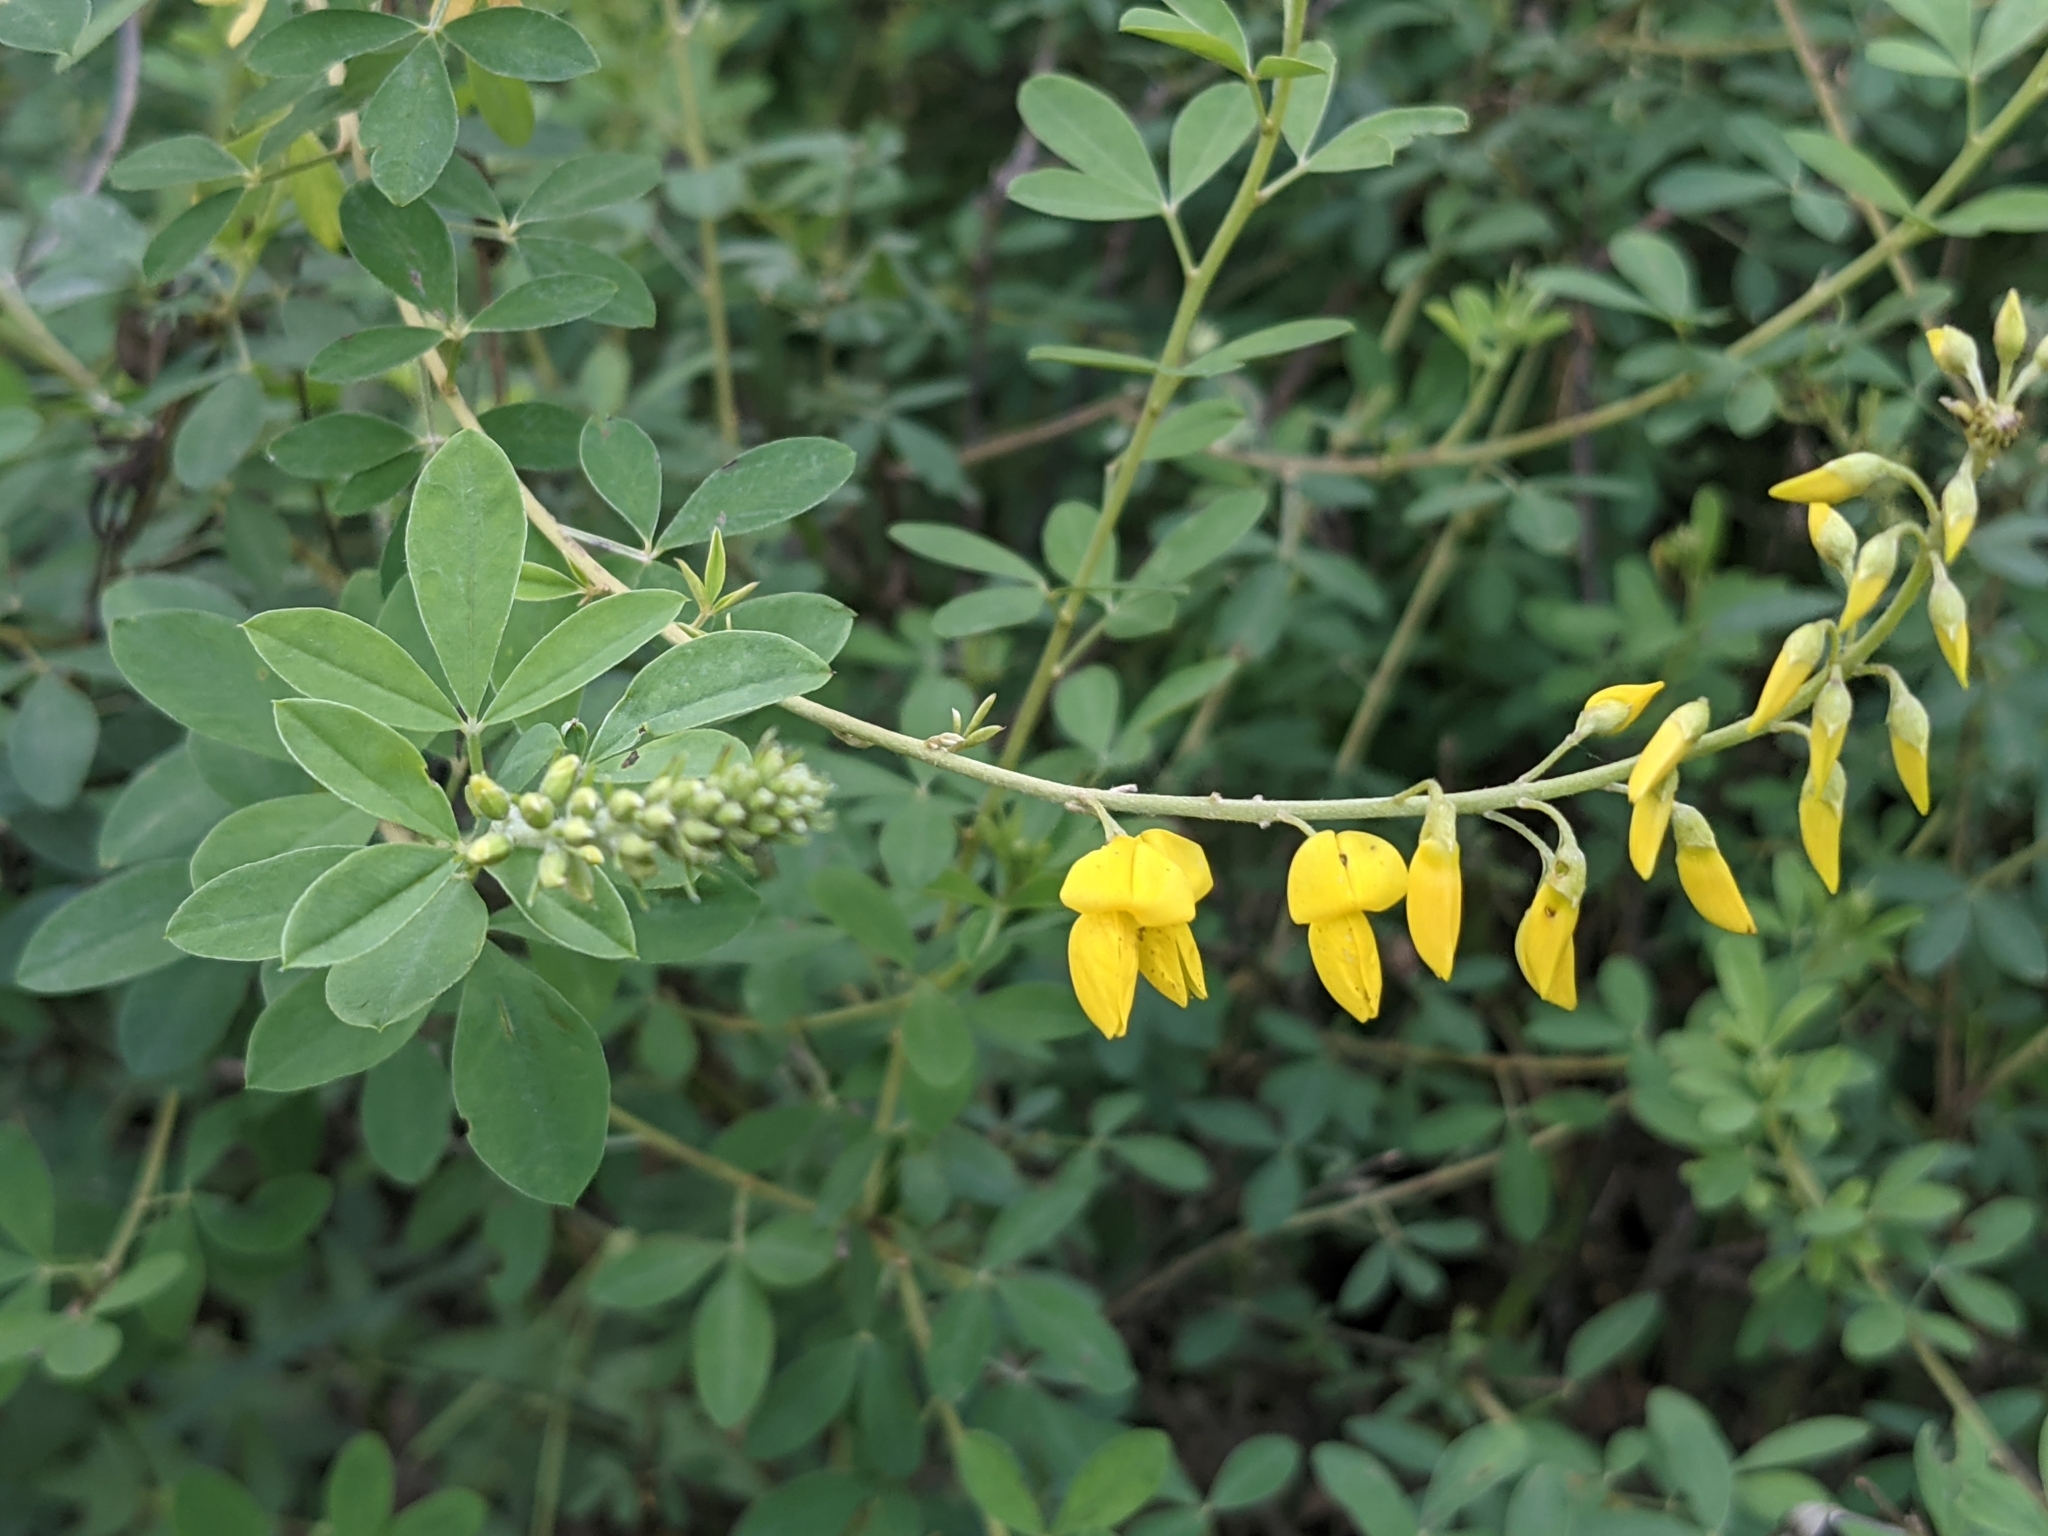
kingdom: Plantae
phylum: Tracheophyta
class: Magnoliopsida
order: Fabales
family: Fabaceae
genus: Cytisus
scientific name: Cytisus nigricans
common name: Black broom
